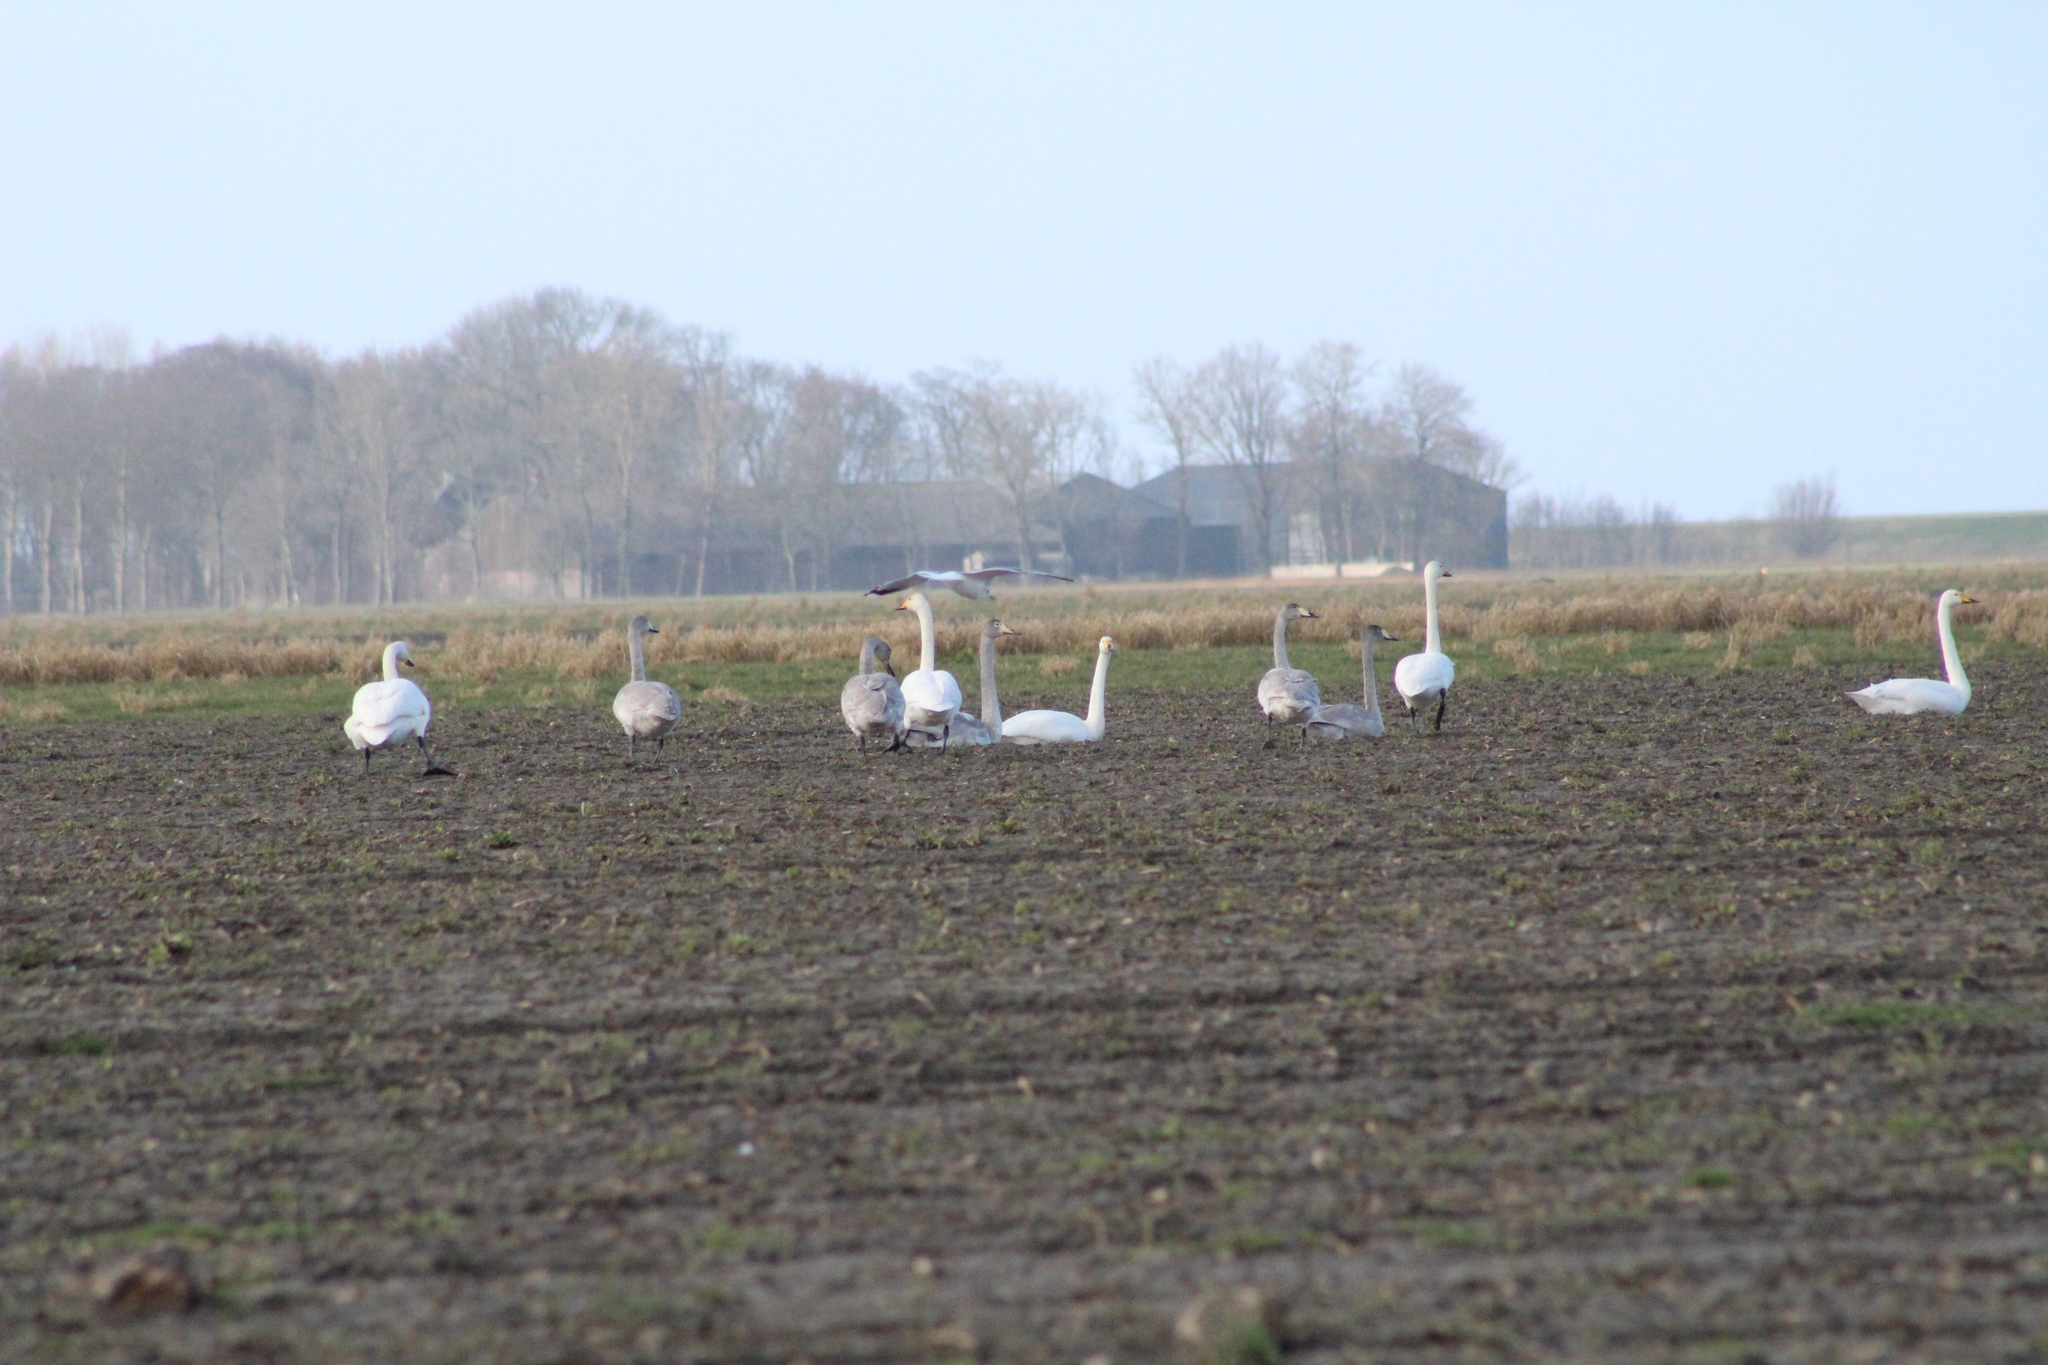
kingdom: Animalia
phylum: Chordata
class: Aves
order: Anseriformes
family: Anatidae
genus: Cygnus
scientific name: Cygnus cygnus
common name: Whooper swan
